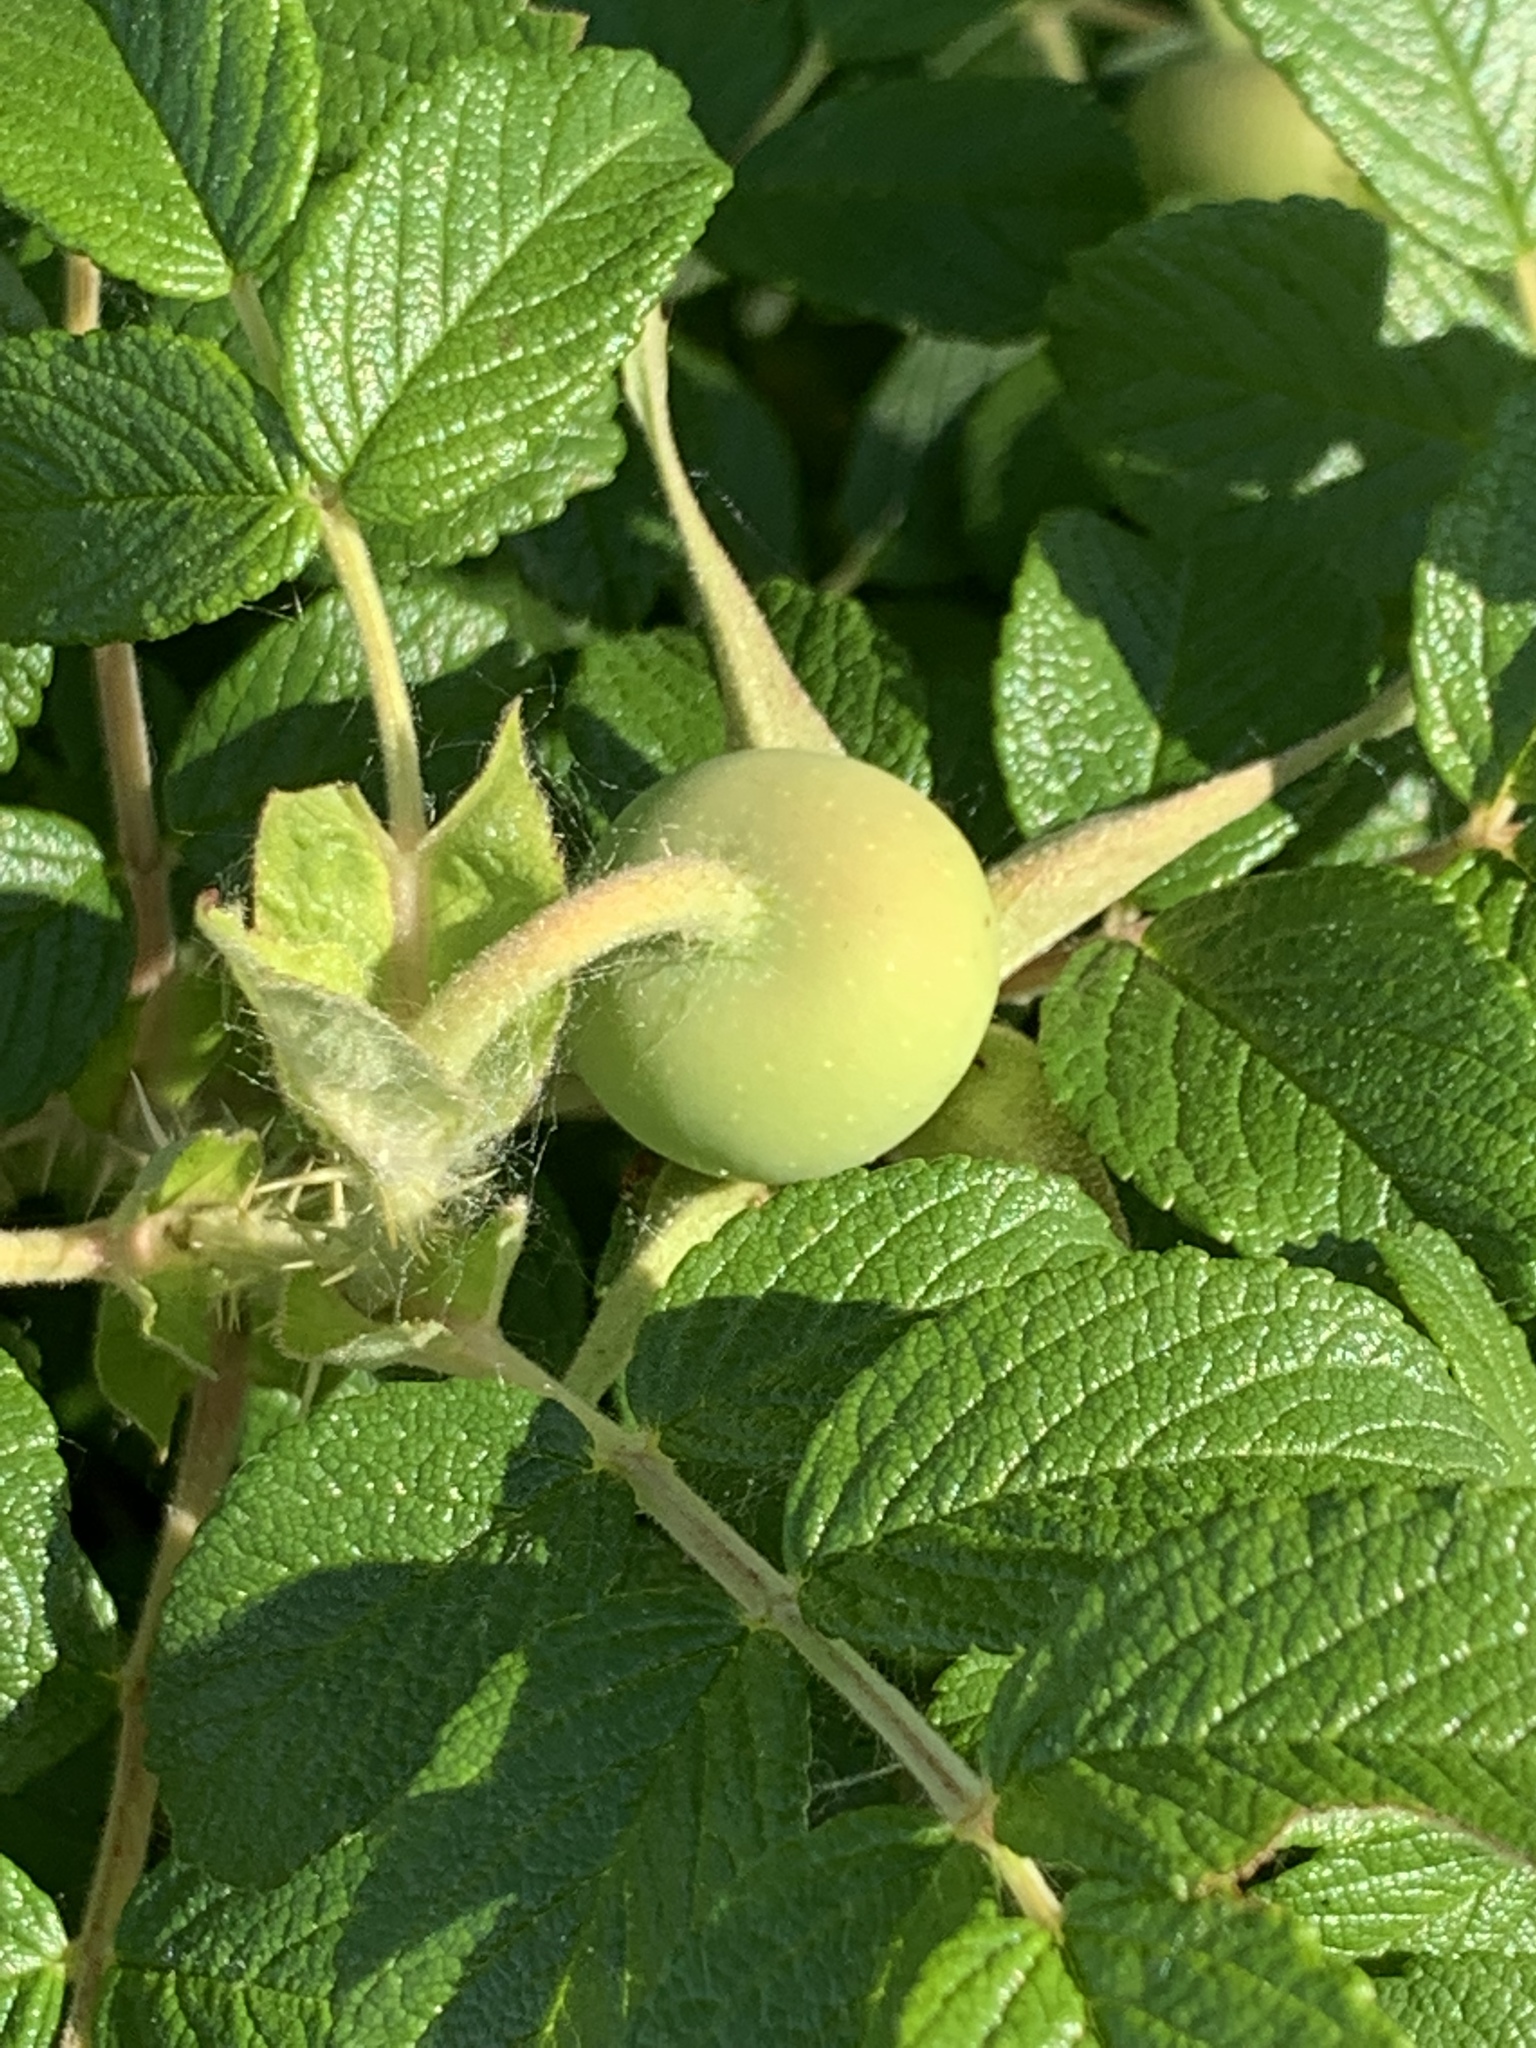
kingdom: Plantae
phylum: Tracheophyta
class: Magnoliopsida
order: Rosales
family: Rosaceae
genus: Rosa
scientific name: Rosa rugosa
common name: Japanese rose
